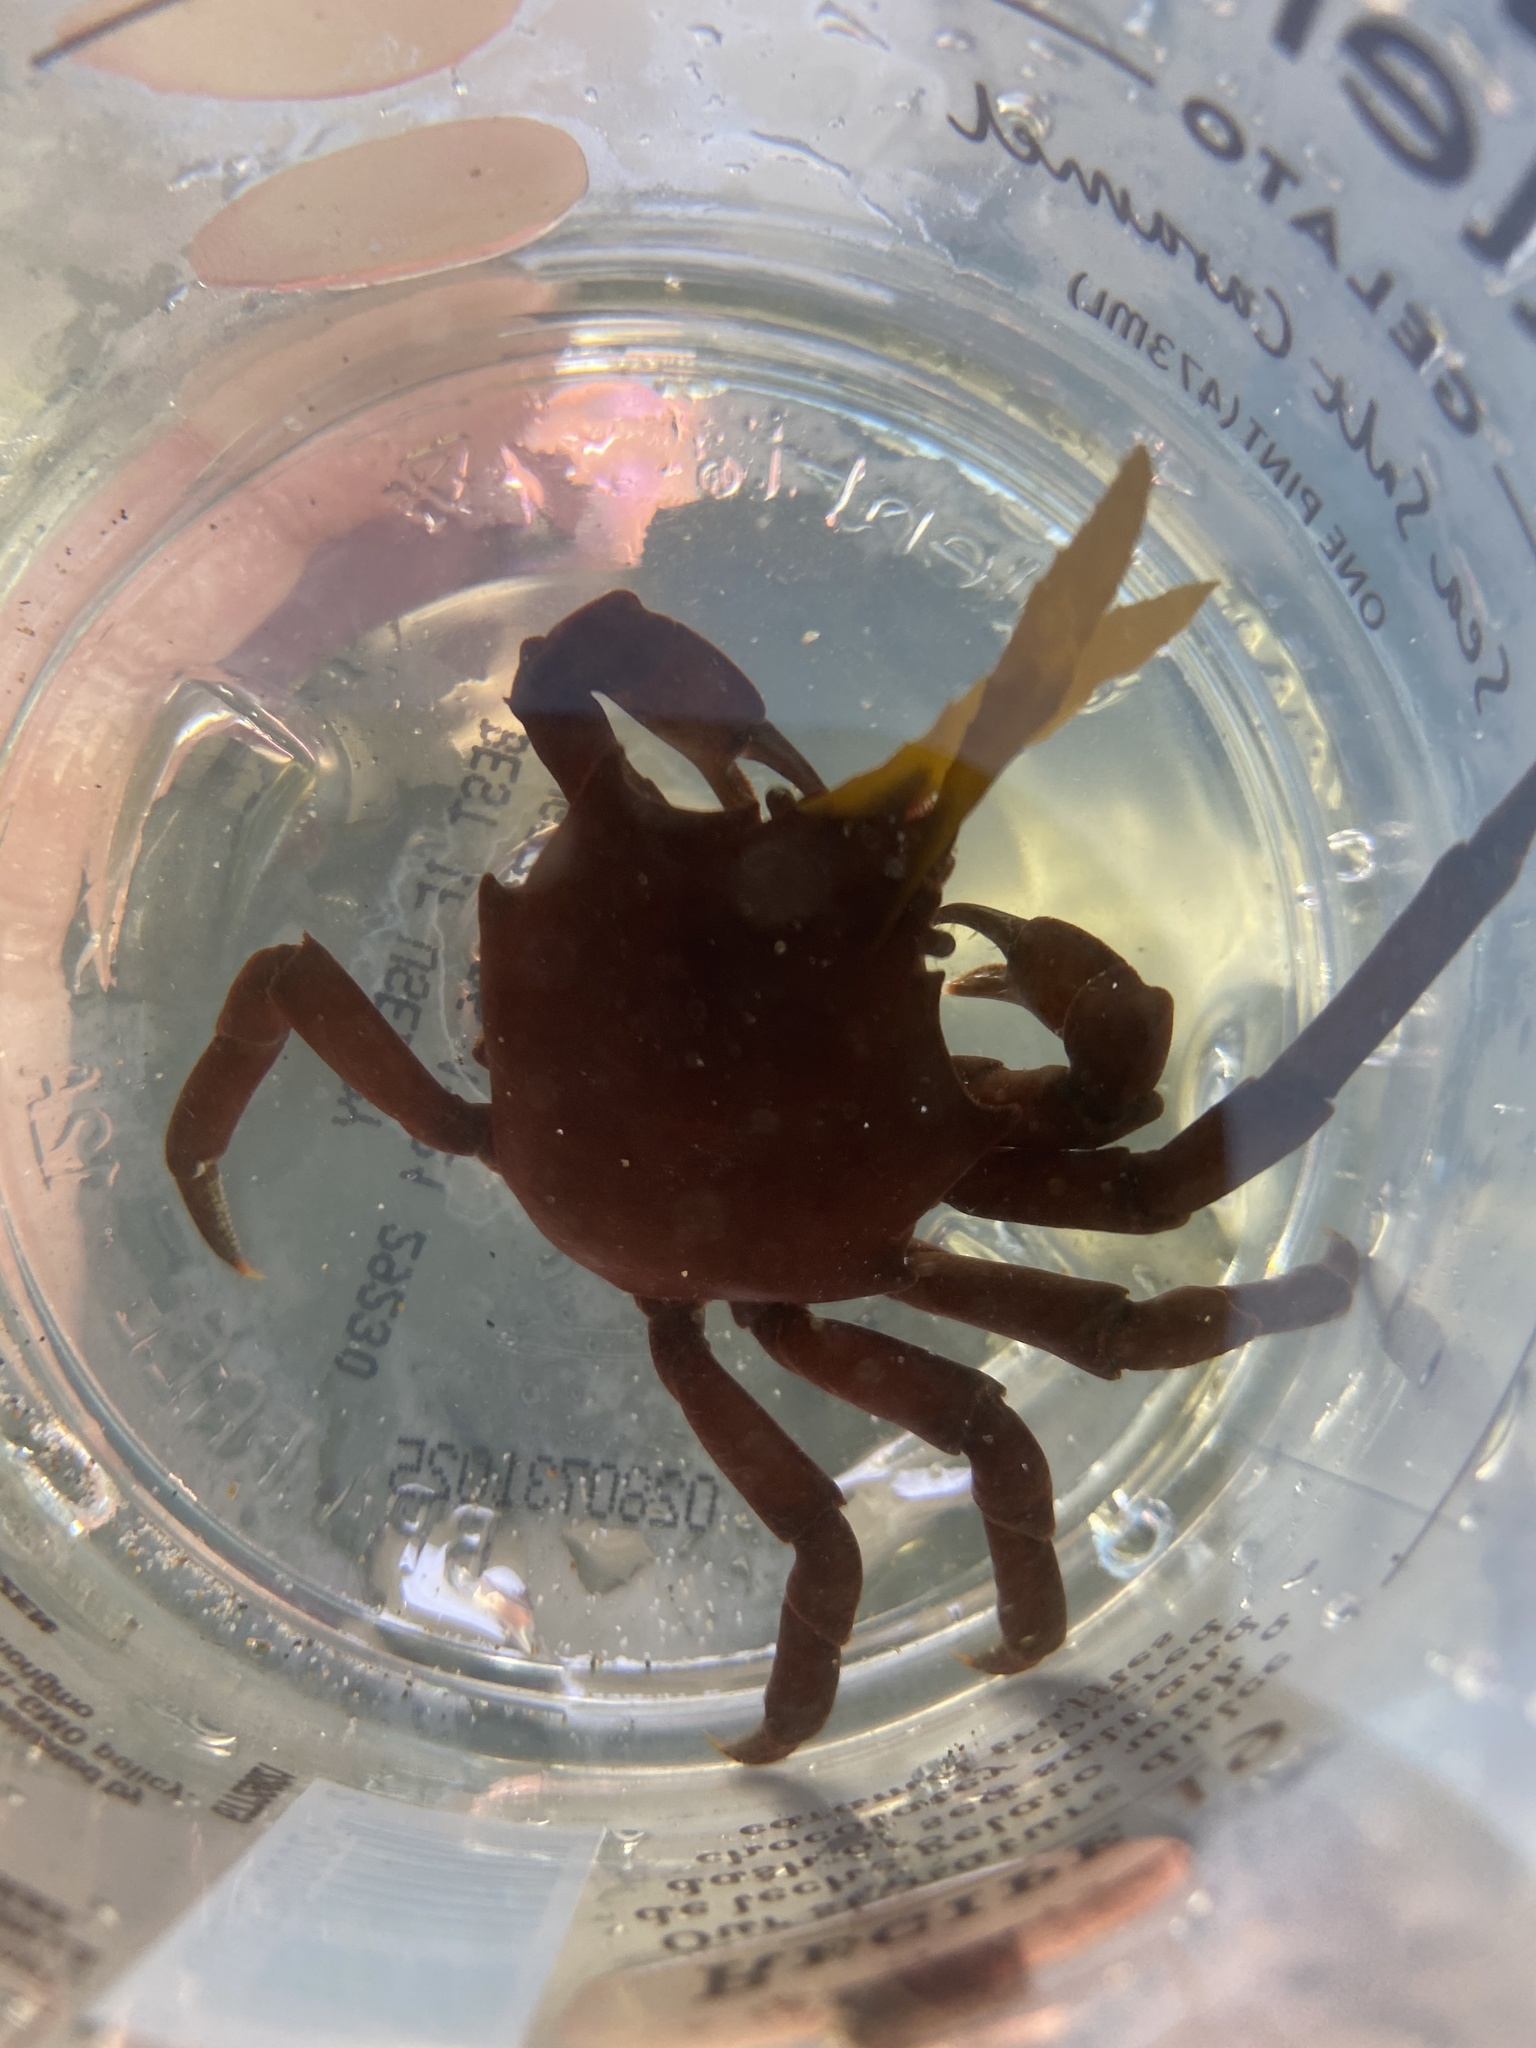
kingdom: Animalia
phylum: Arthropoda
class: Malacostraca
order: Decapoda
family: Epialtidae
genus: Pugettia
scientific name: Pugettia producta
